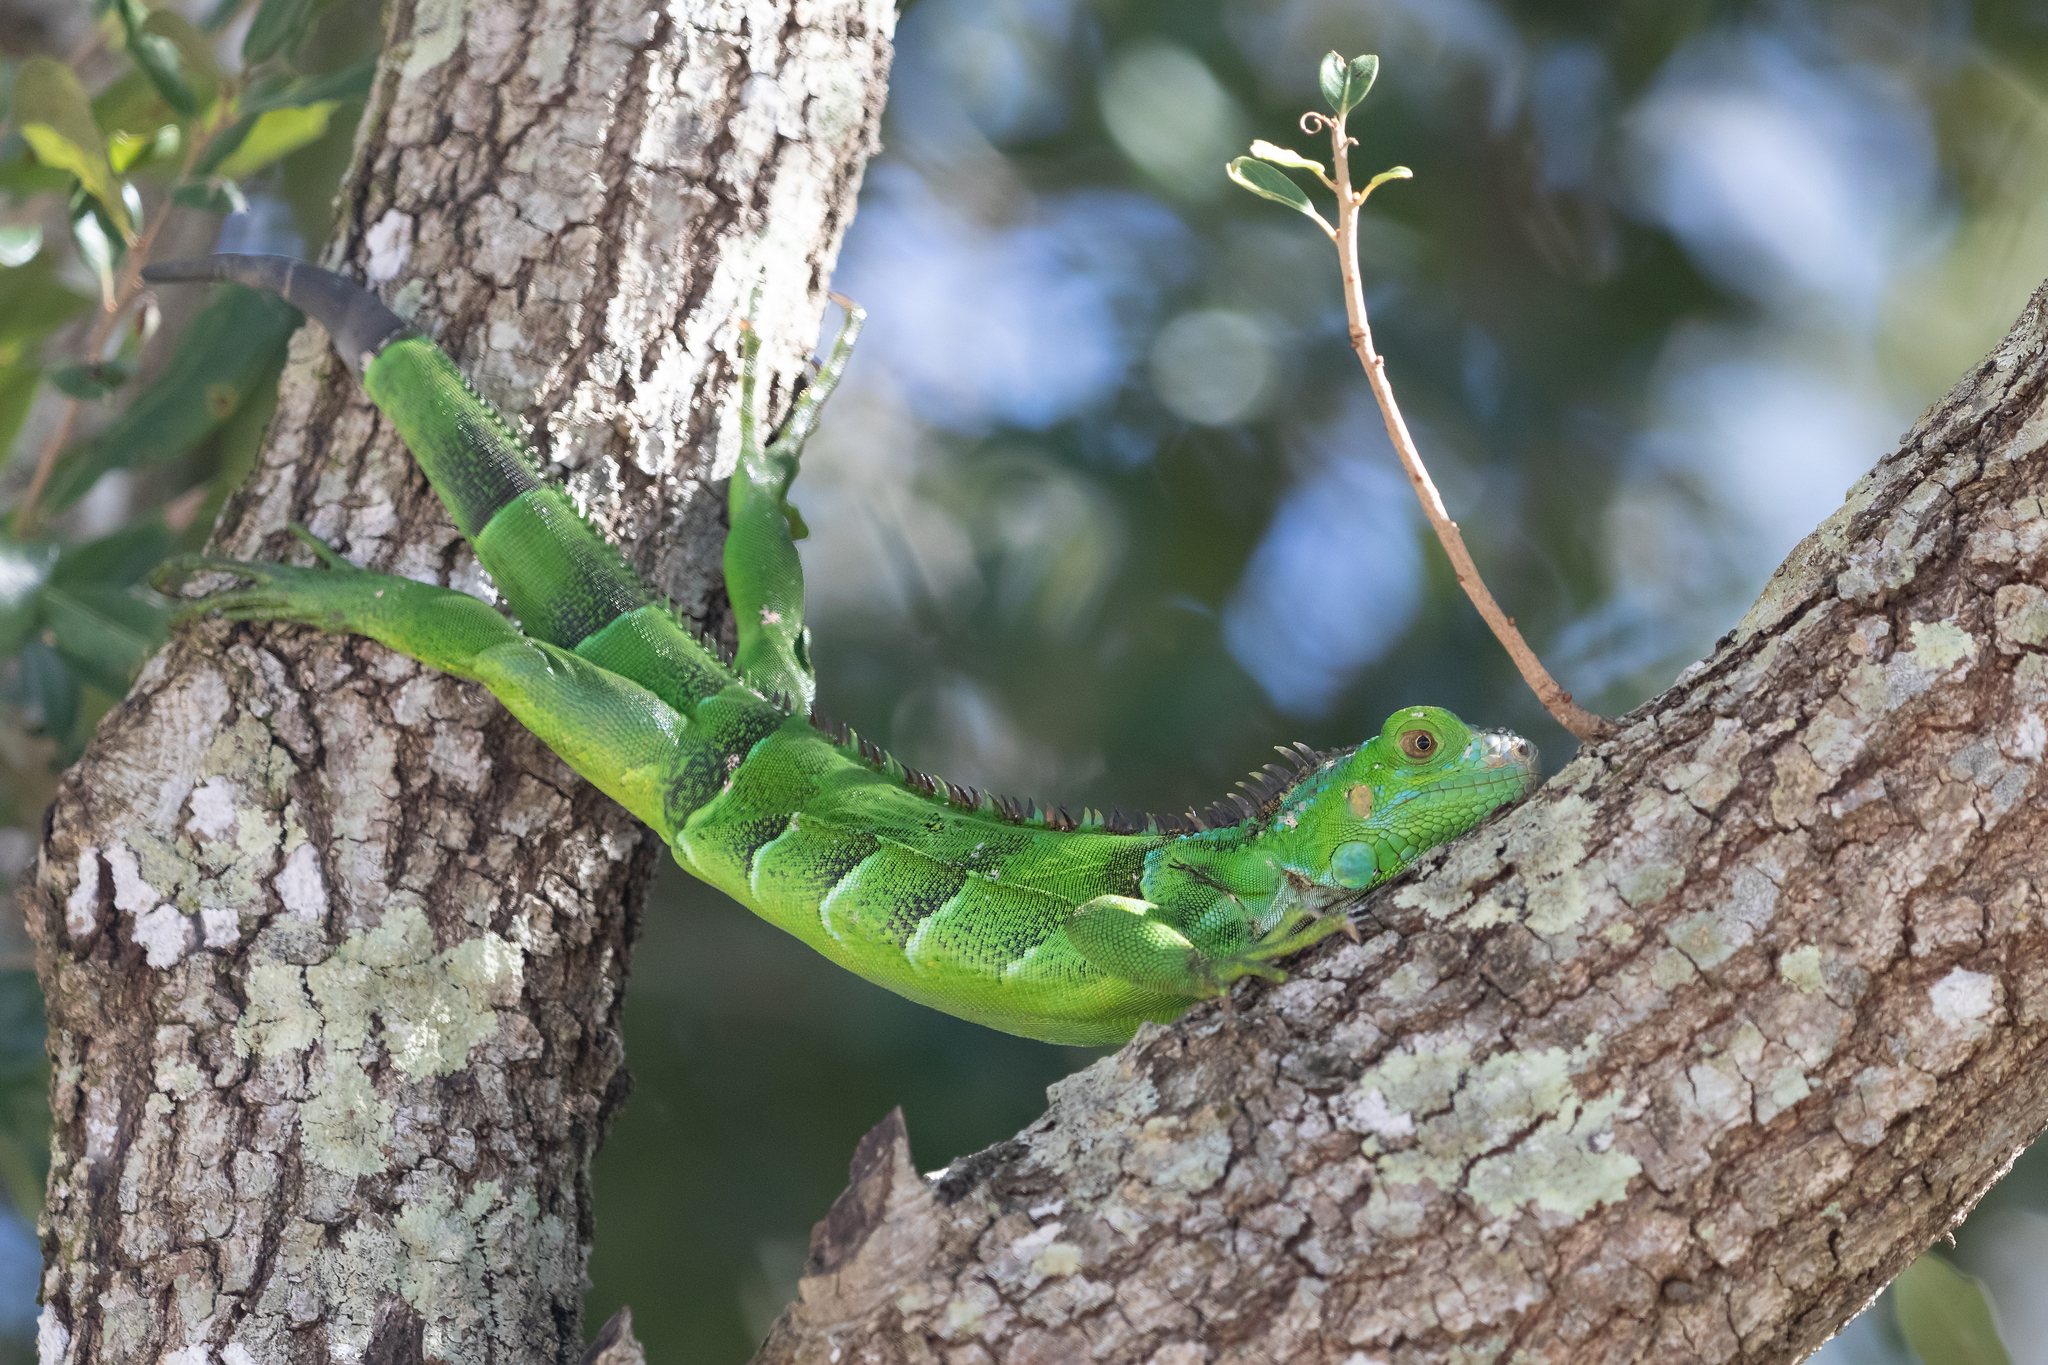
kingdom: Animalia
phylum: Chordata
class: Squamata
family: Iguanidae
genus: Iguana
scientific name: Iguana iguana
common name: Green iguana
